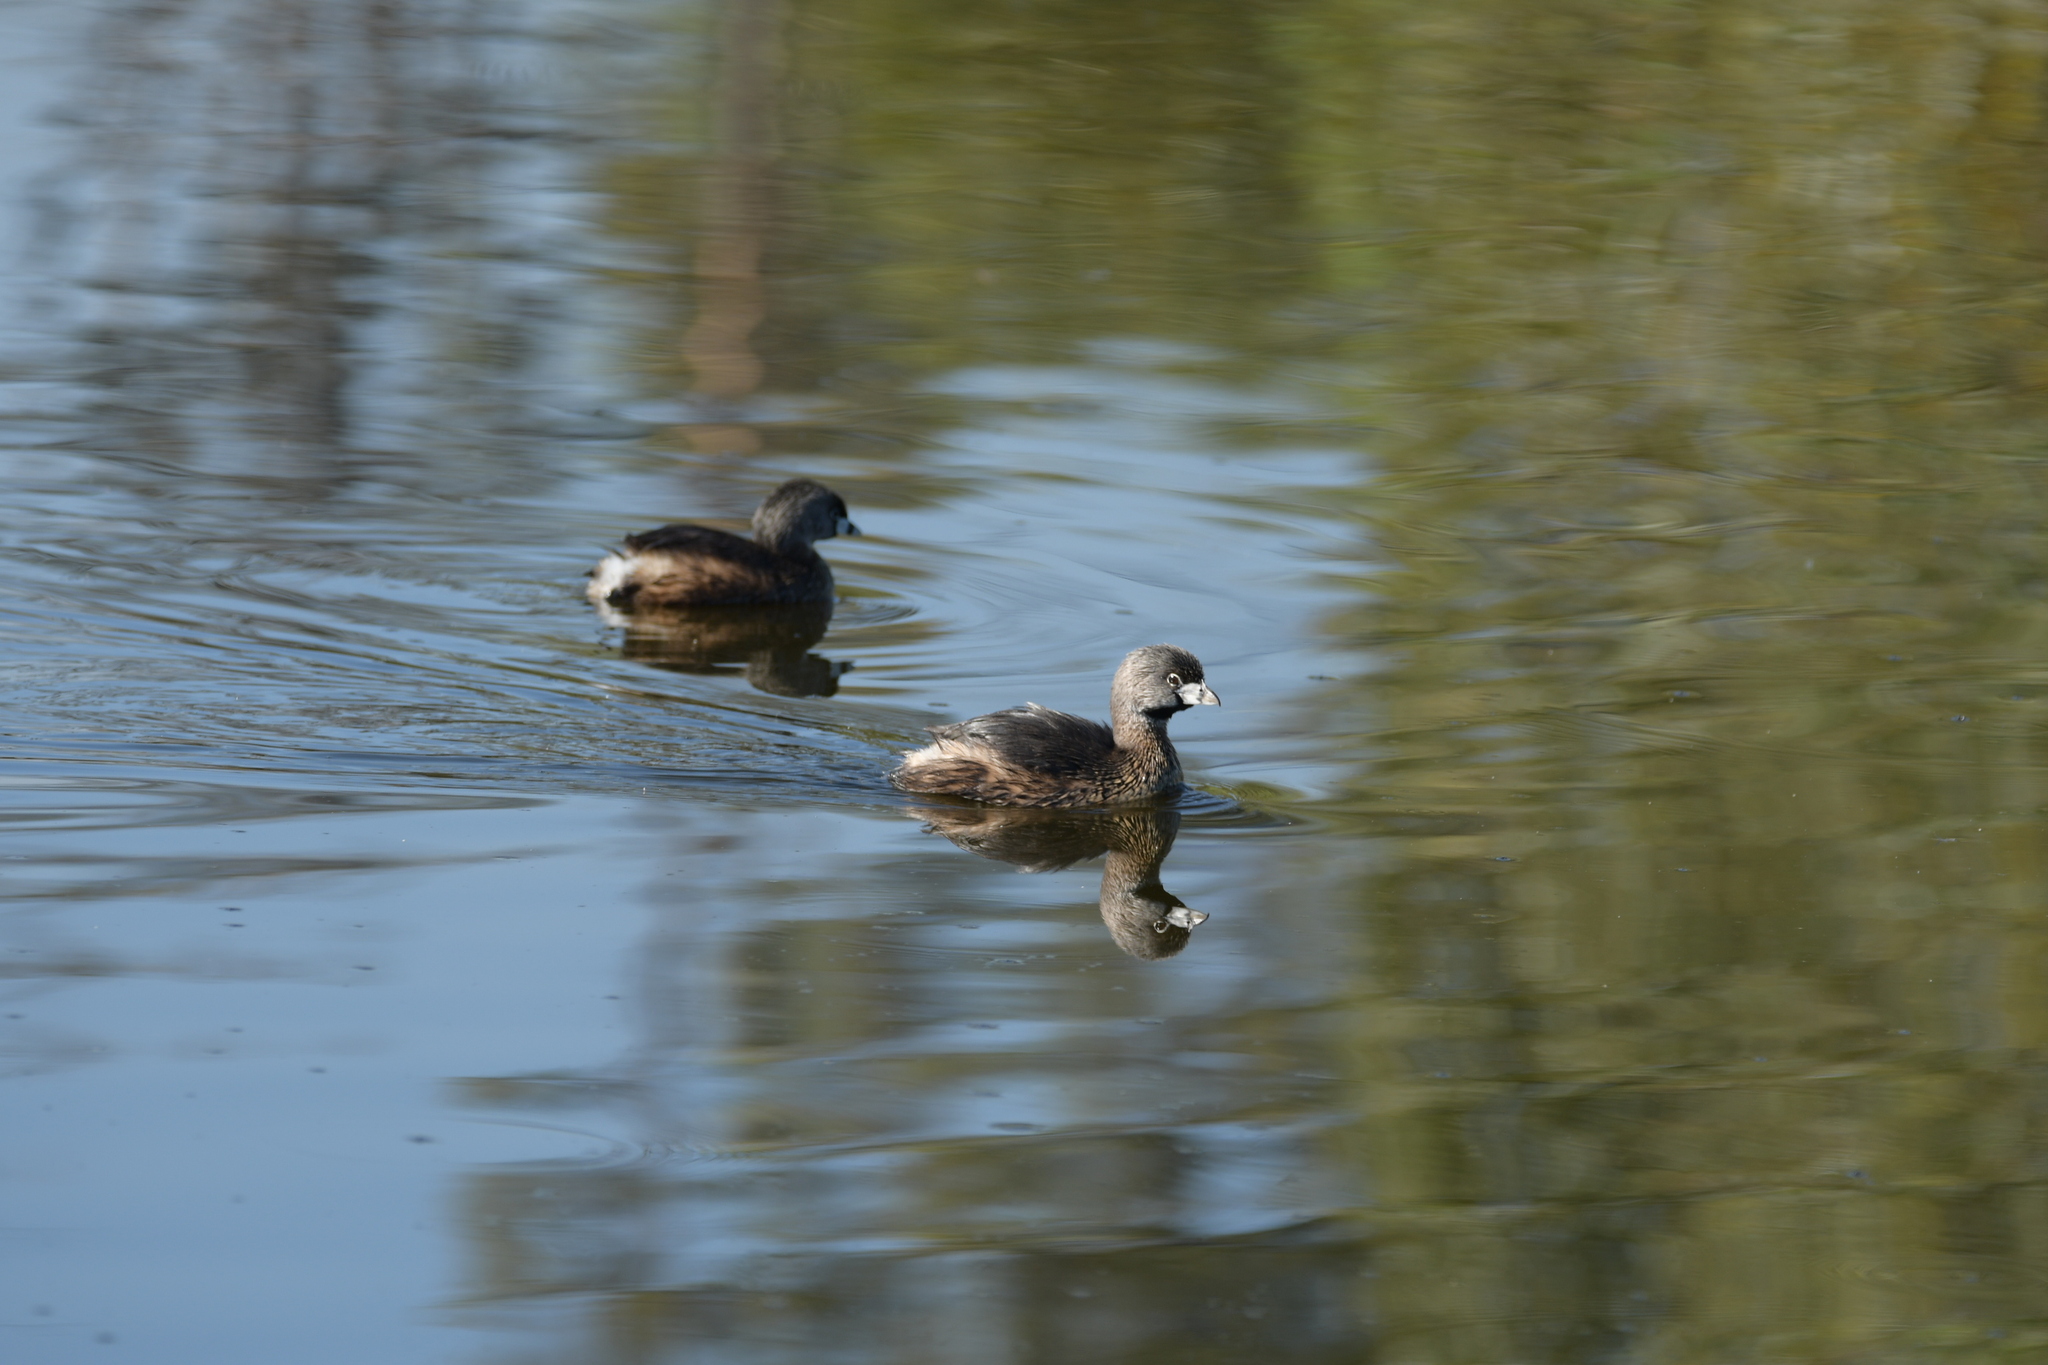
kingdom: Animalia
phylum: Chordata
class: Aves
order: Podicipediformes
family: Podicipedidae
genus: Podilymbus
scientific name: Podilymbus podiceps
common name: Pied-billed grebe
